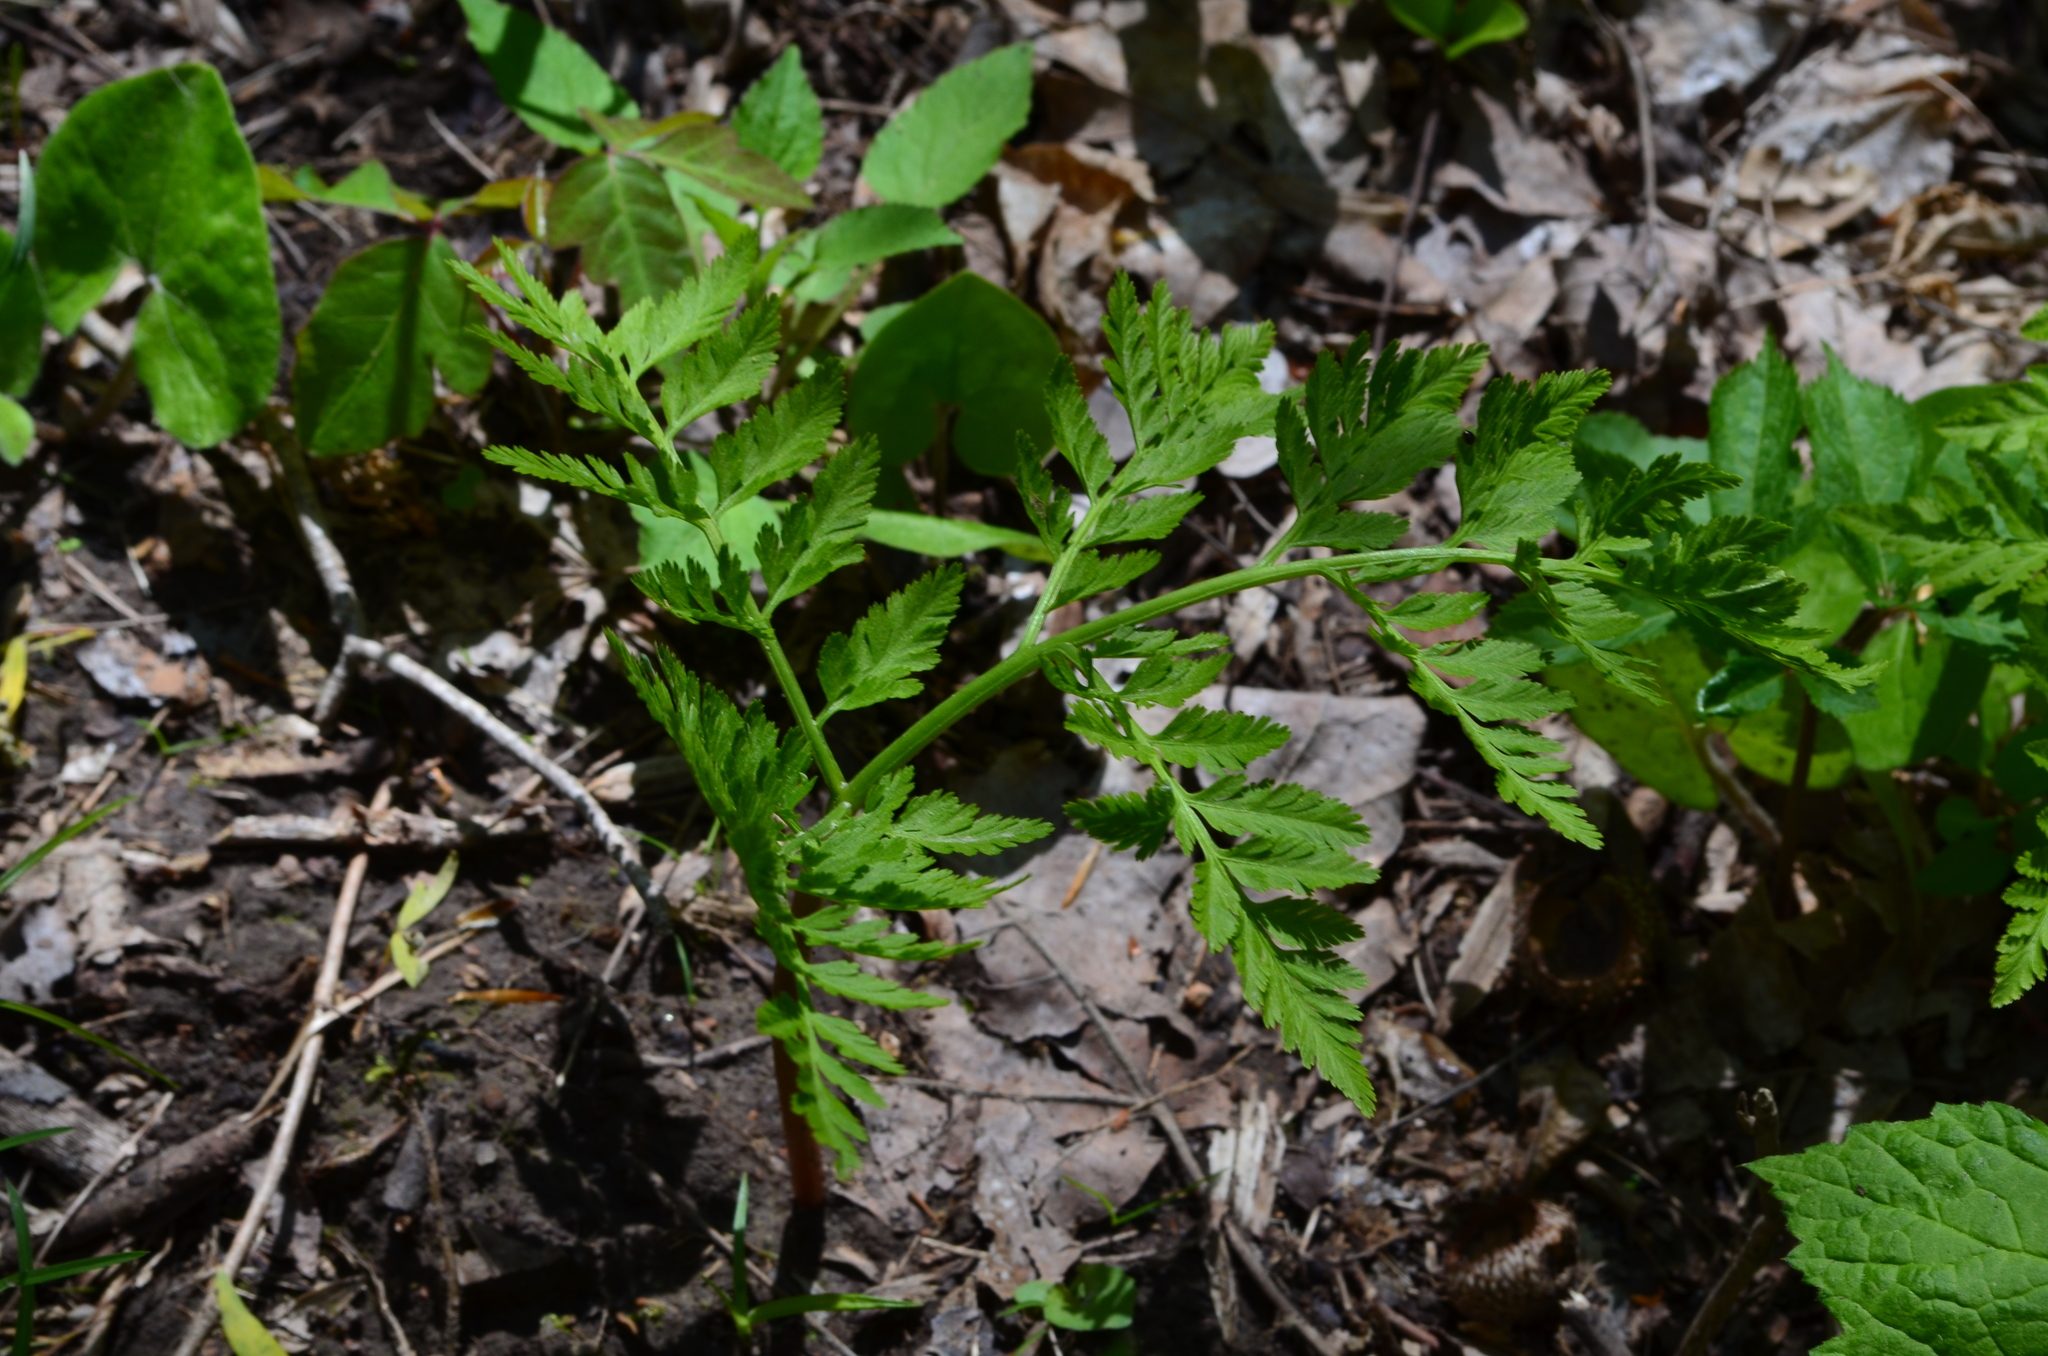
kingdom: Plantae
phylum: Tracheophyta
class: Polypodiopsida
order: Ophioglossales
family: Ophioglossaceae
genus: Botrypus
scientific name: Botrypus virginianus
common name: Common grapefern
